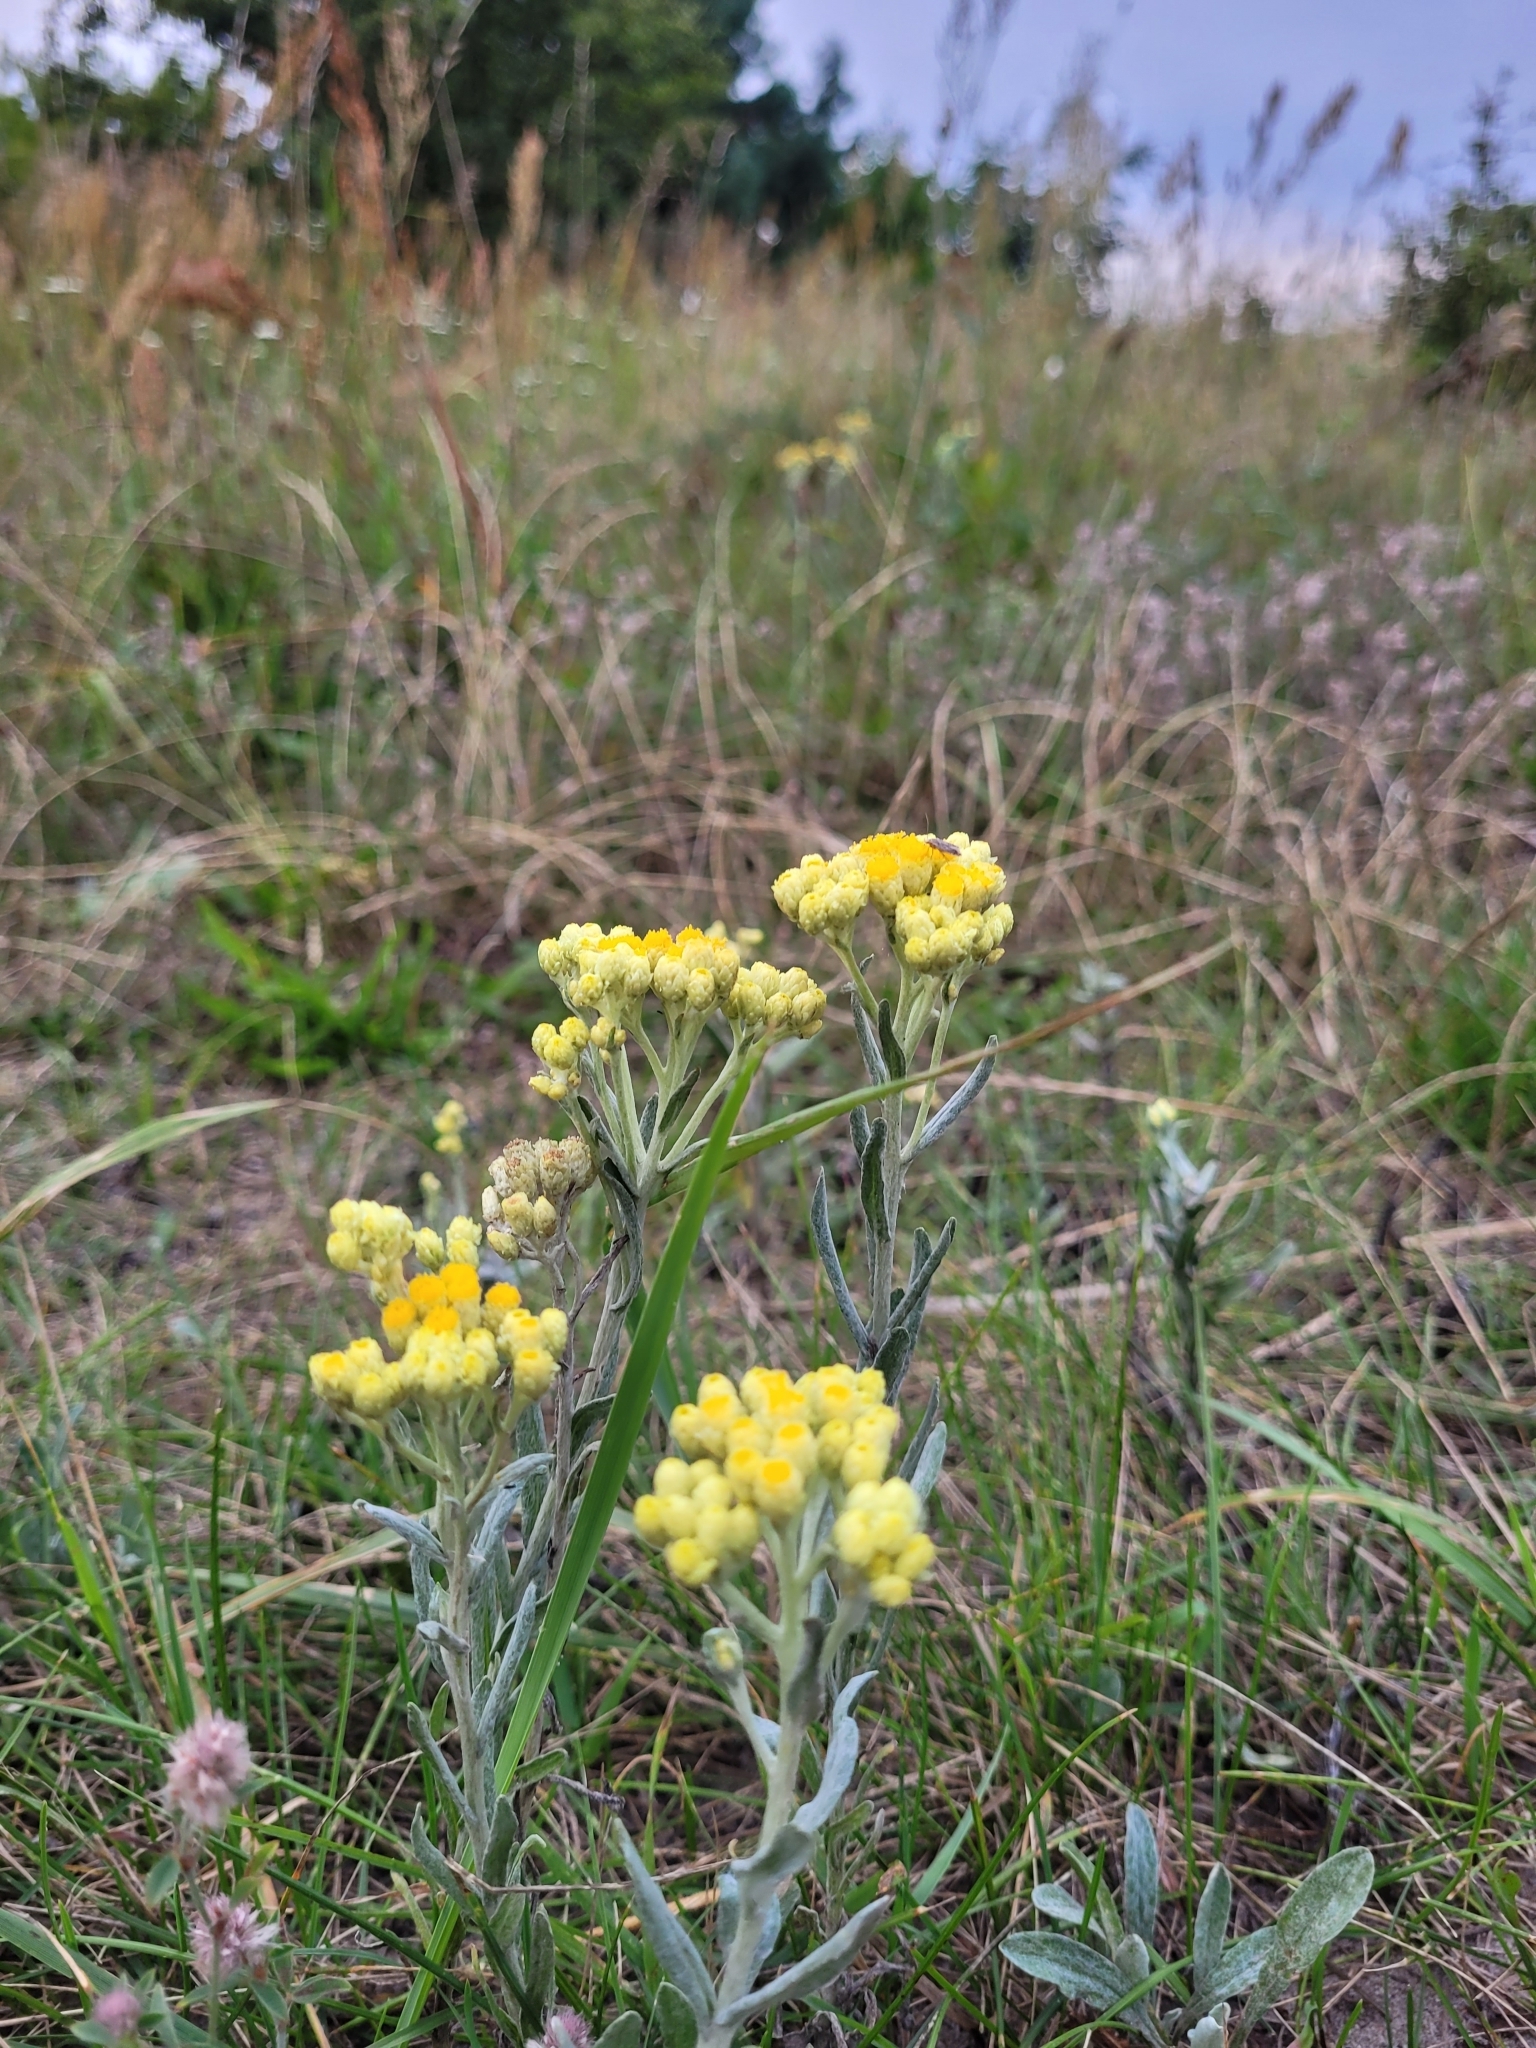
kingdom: Plantae
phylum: Tracheophyta
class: Magnoliopsida
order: Asterales
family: Asteraceae
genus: Helichrysum
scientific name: Helichrysum arenarium
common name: Strawflower
